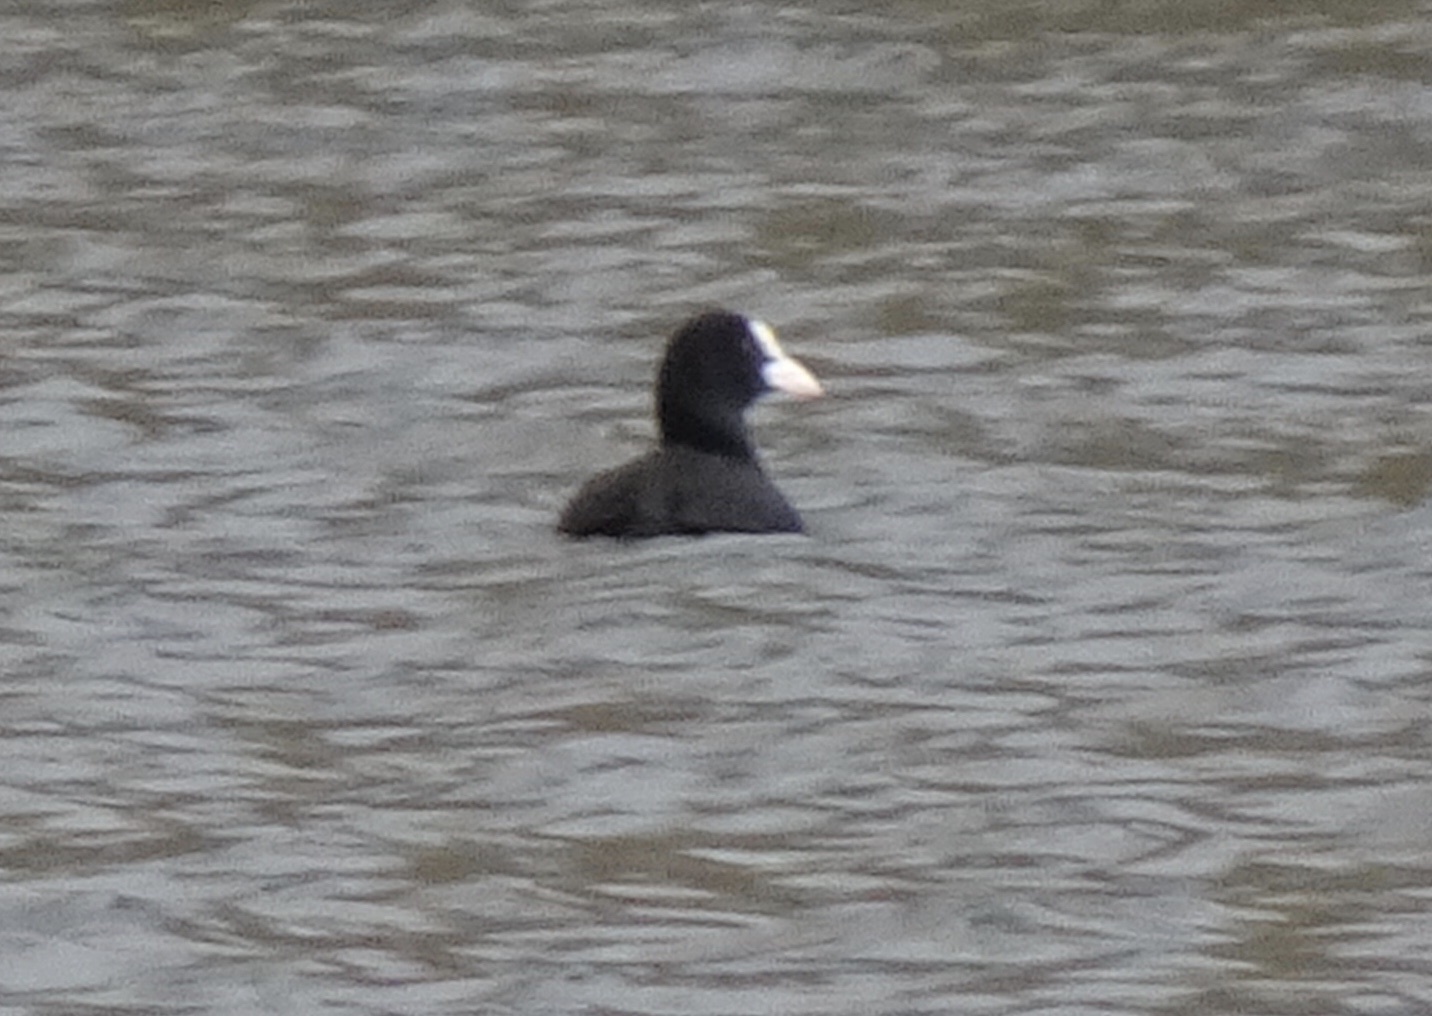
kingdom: Animalia
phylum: Chordata
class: Aves
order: Gruiformes
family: Rallidae
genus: Fulica
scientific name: Fulica atra
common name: Eurasian coot
